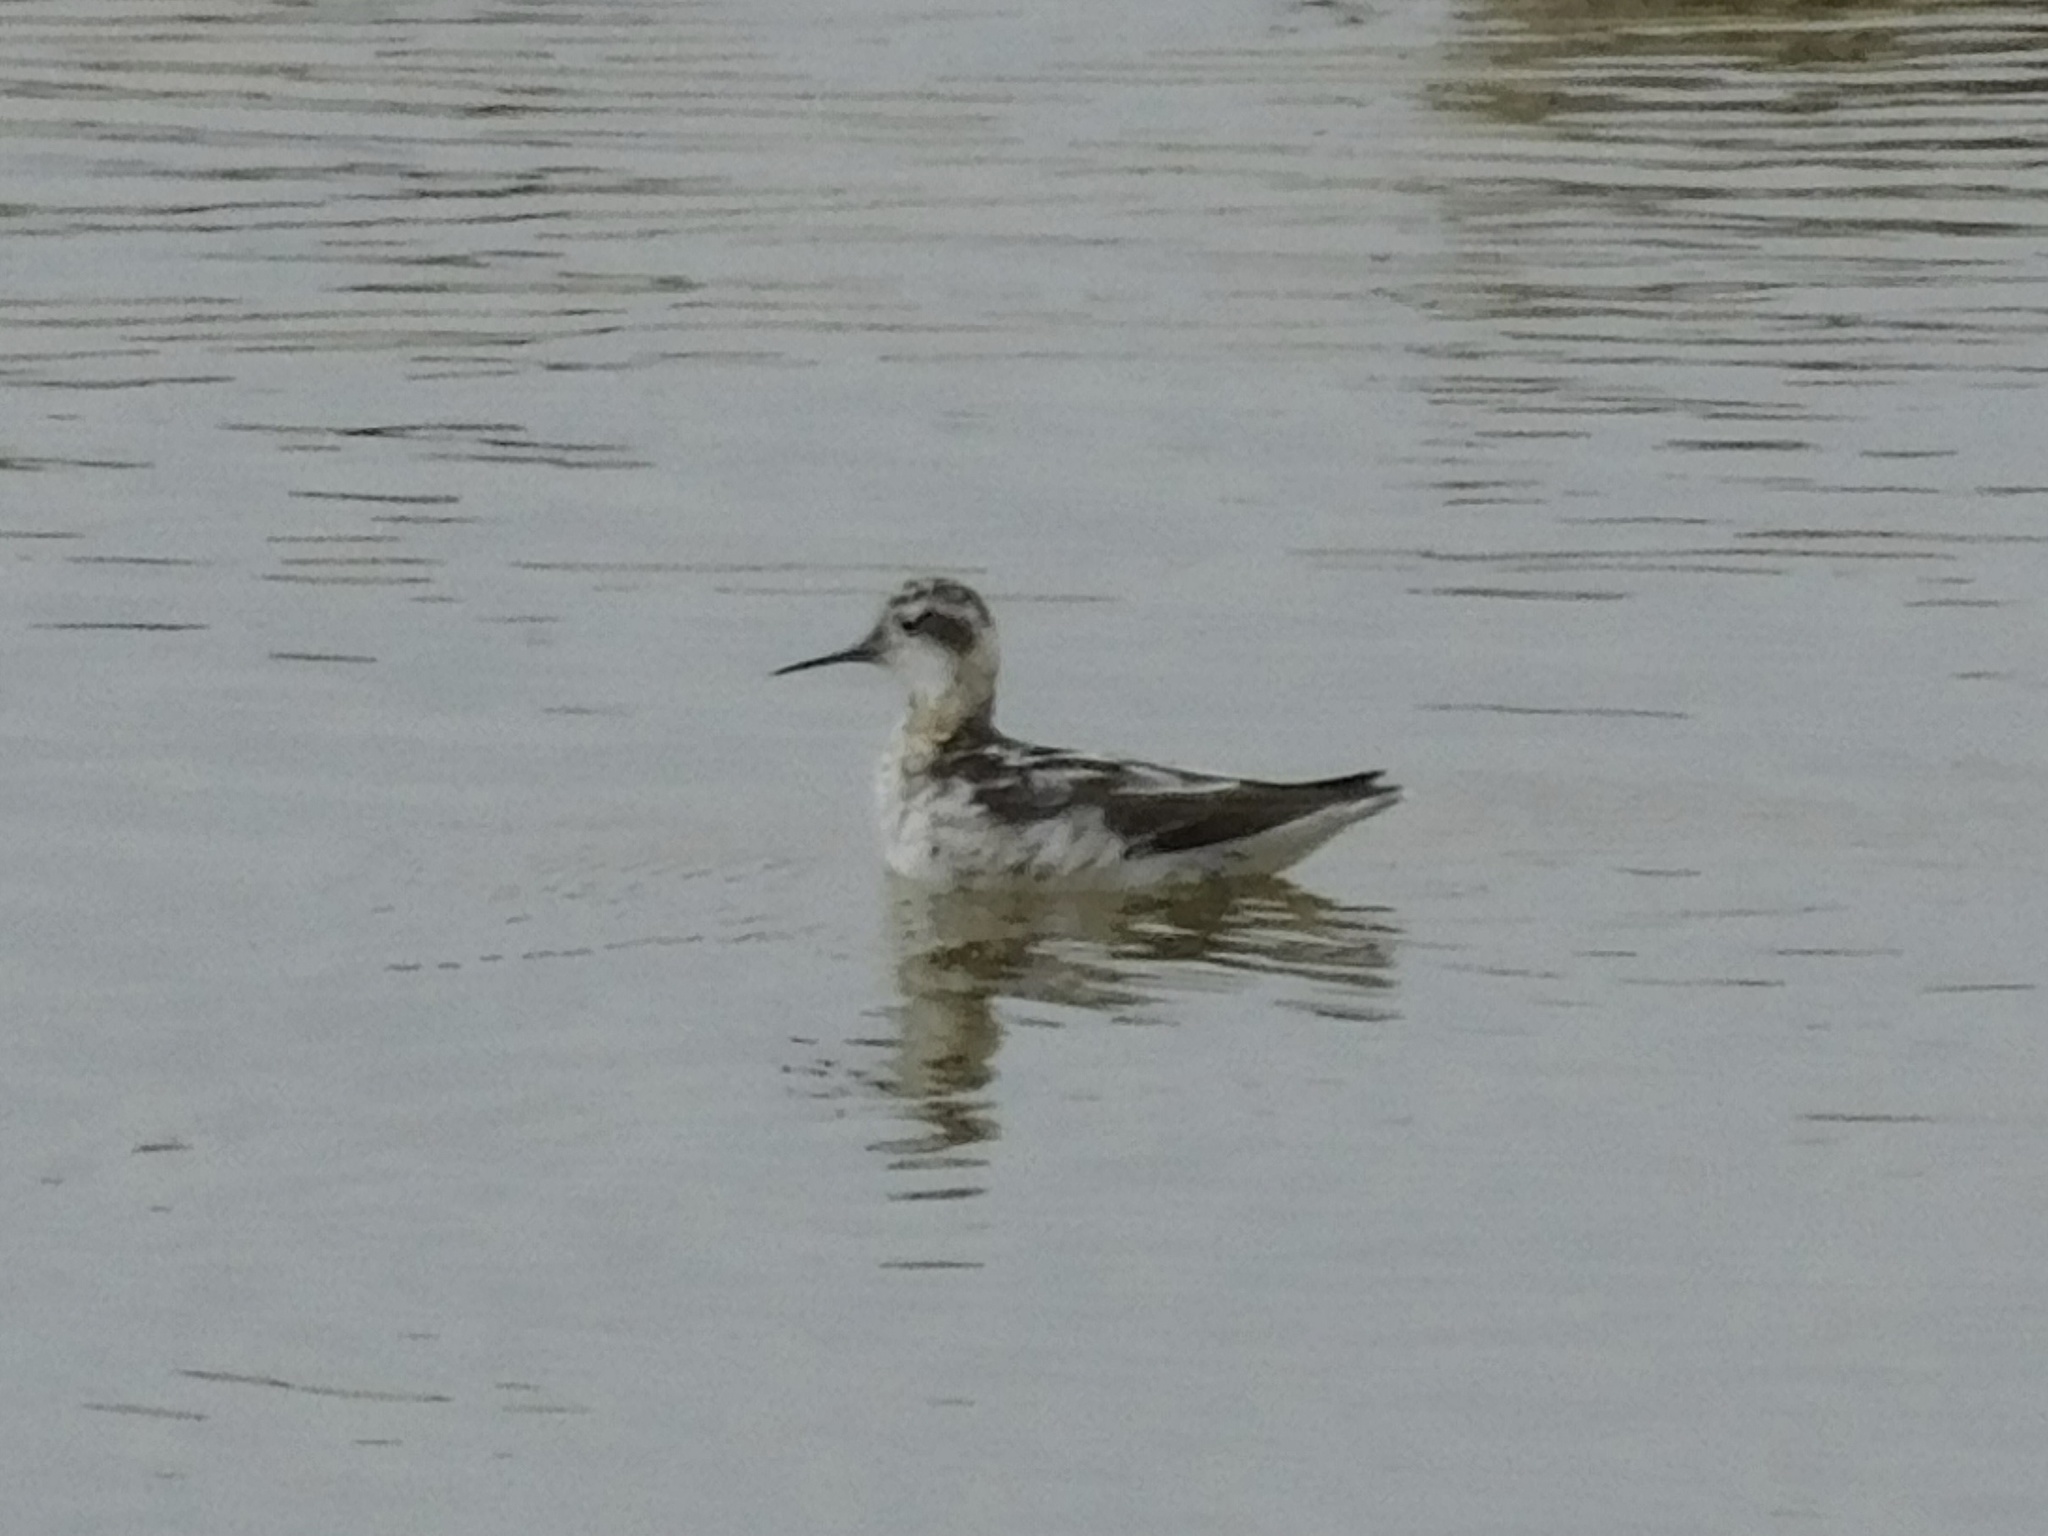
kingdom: Animalia
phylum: Chordata
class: Aves
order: Charadriiformes
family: Scolopacidae
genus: Phalaropus
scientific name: Phalaropus lobatus
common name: Red-necked phalarope
